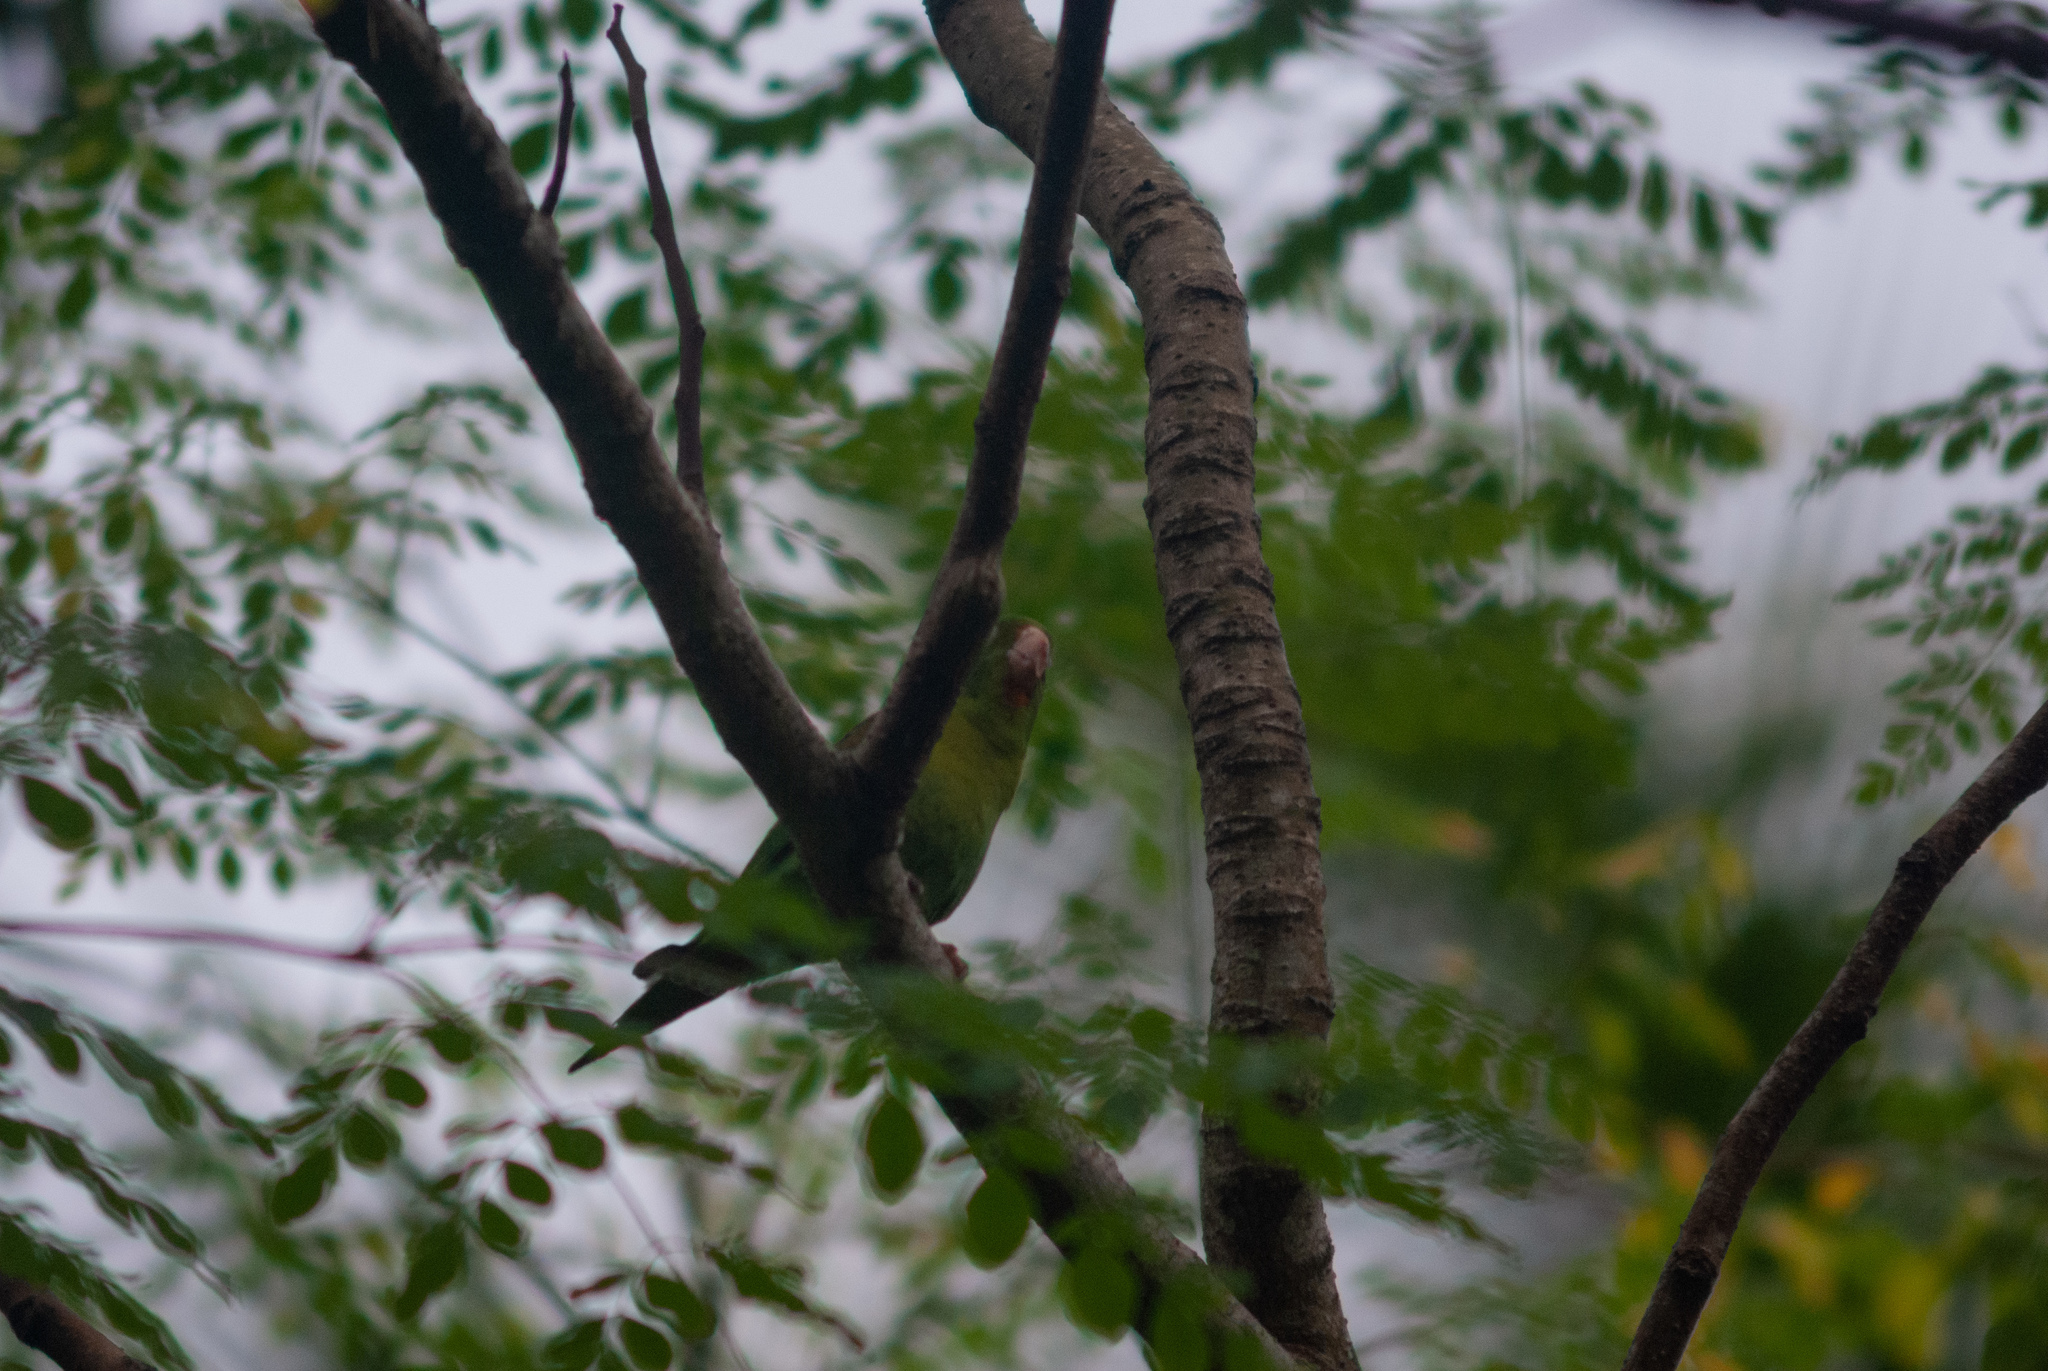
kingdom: Animalia
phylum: Chordata
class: Aves
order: Psittaciformes
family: Psittacidae
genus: Brotogeris
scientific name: Brotogeris jugularis
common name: Orange-chinned parakeet
